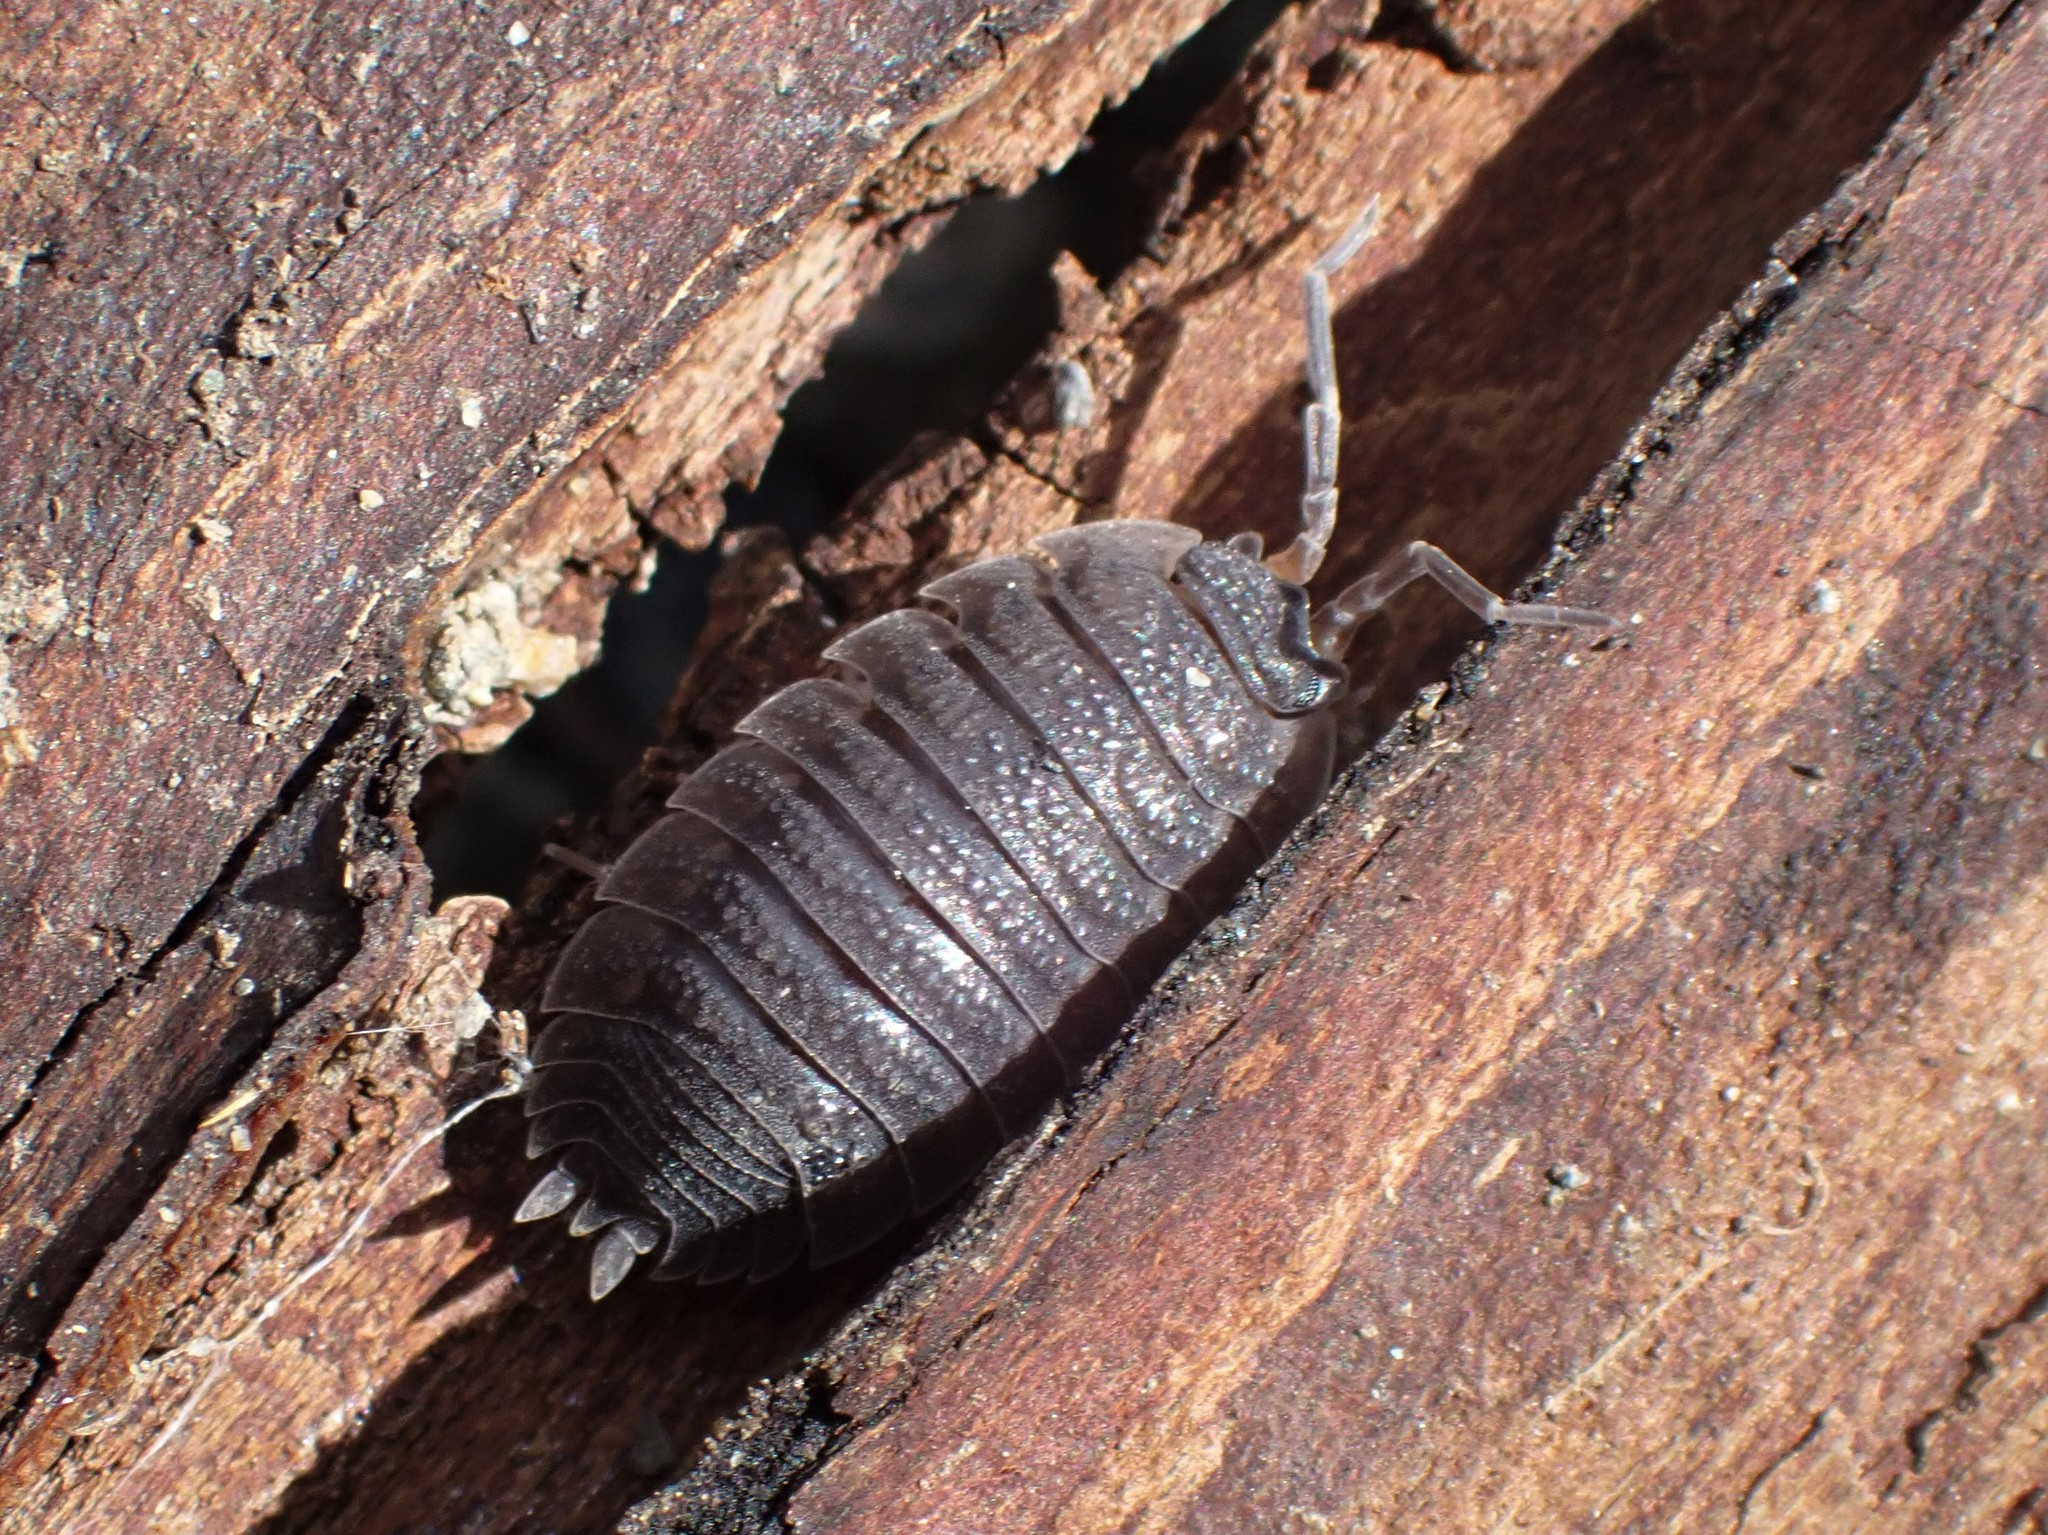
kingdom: Animalia
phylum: Arthropoda
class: Malacostraca
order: Isopoda
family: Porcellionidae
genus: Porcellio
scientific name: Porcellio scaber
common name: Common rough woodlouse
